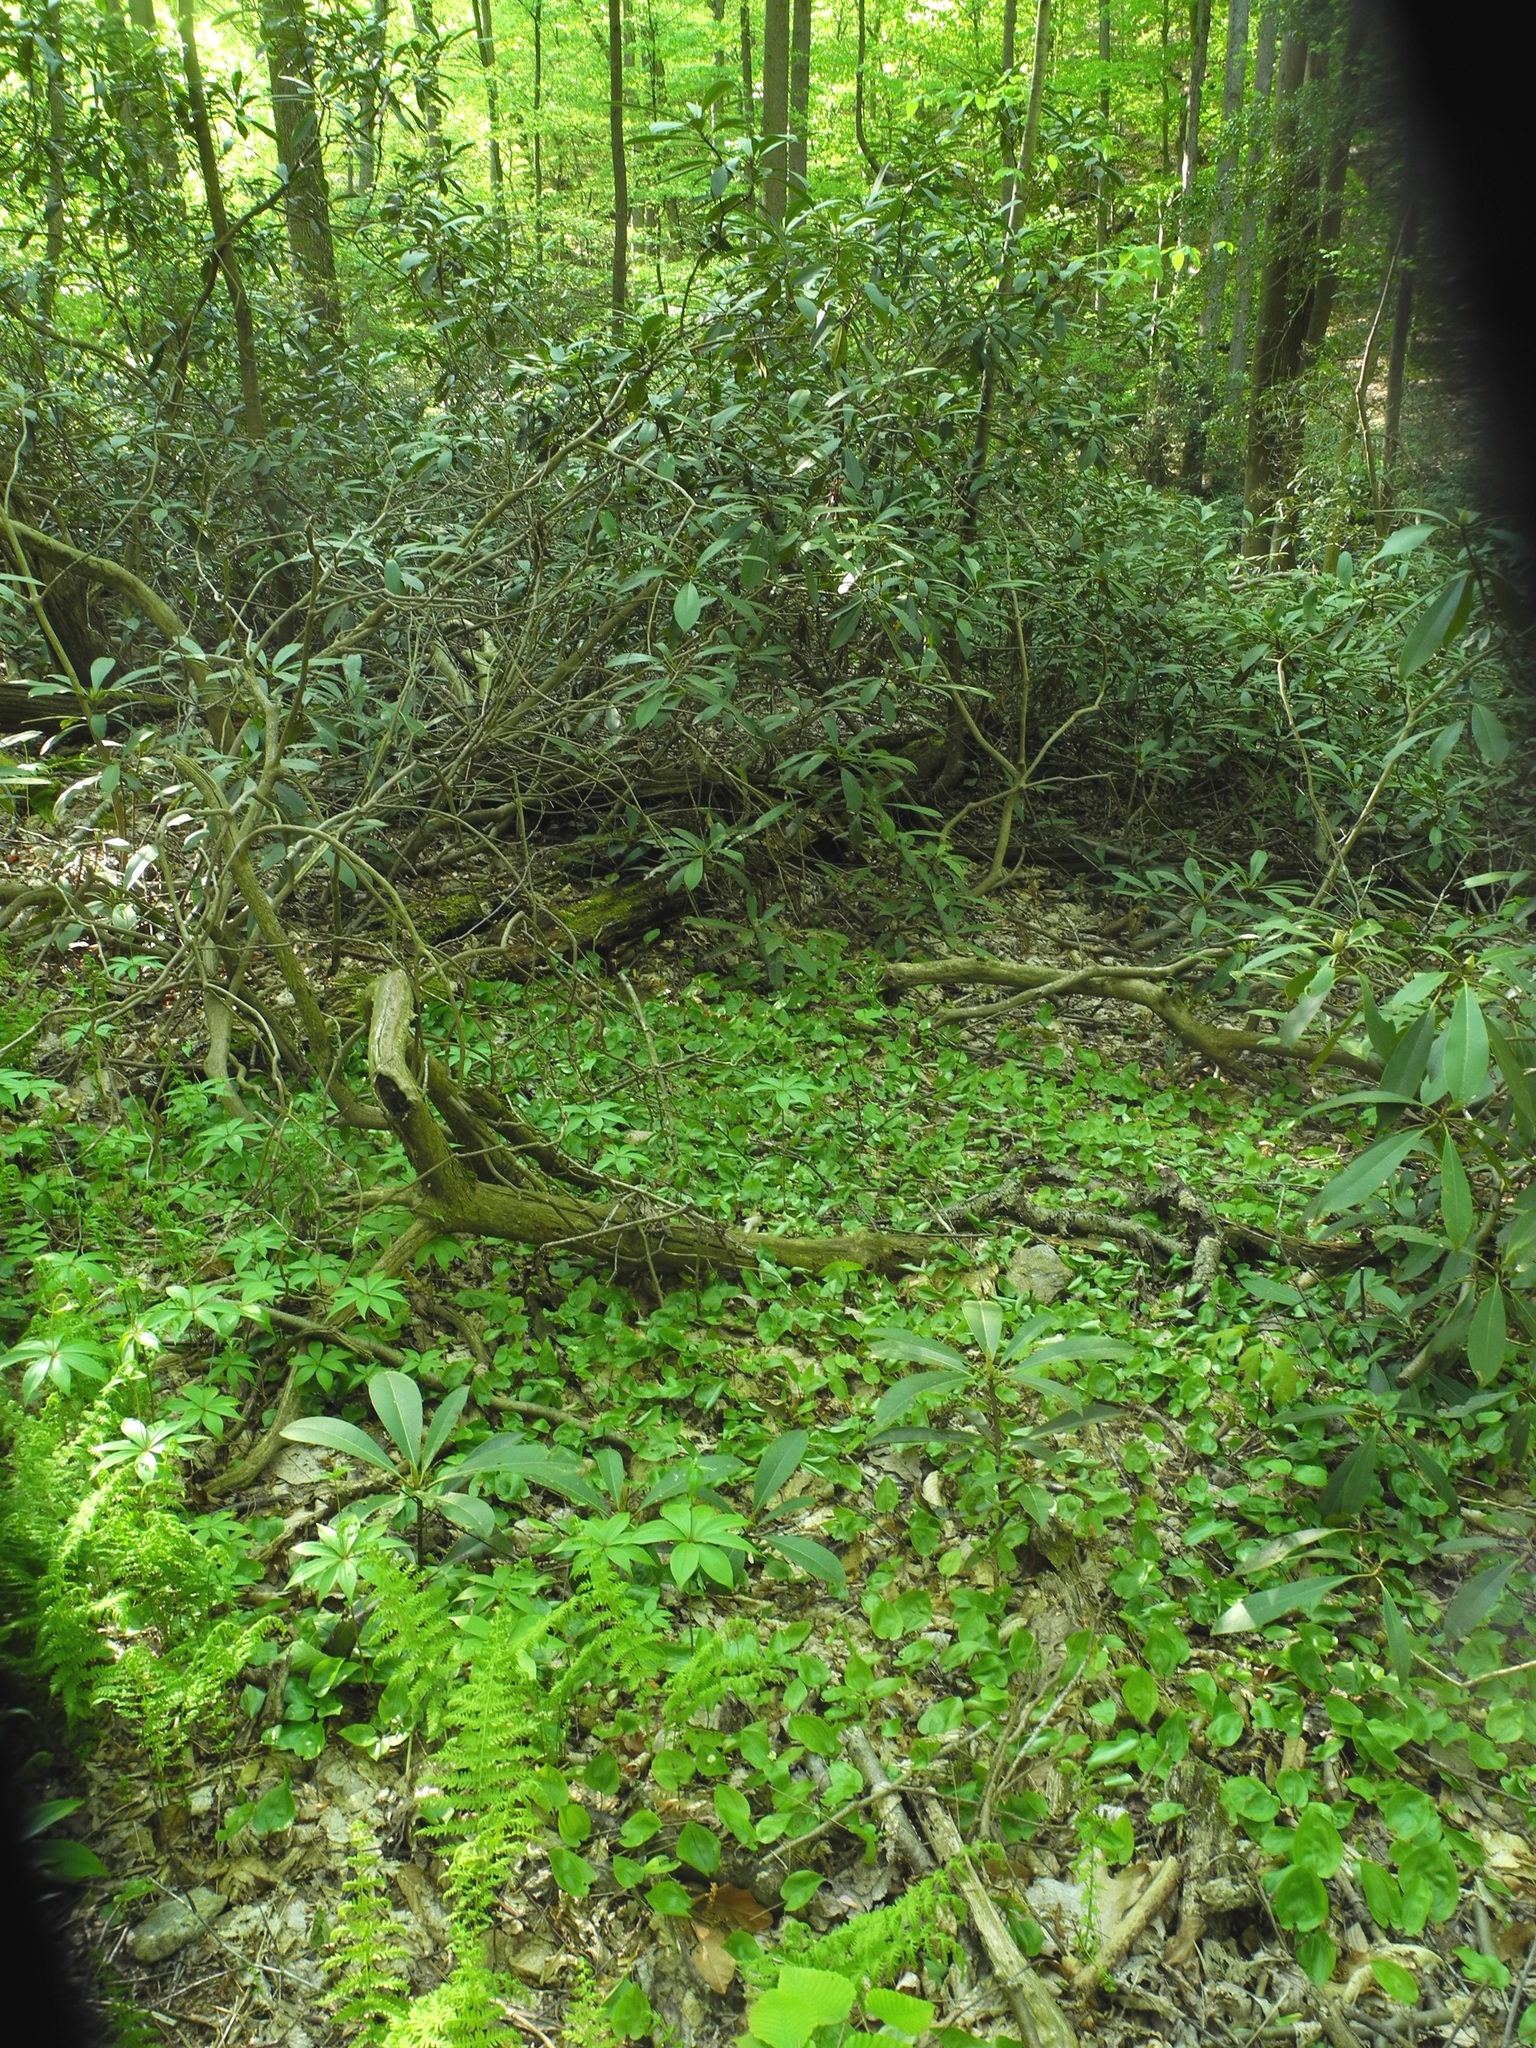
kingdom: Plantae
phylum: Tracheophyta
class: Magnoliopsida
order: Ericales
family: Ericaceae
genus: Rhododendron
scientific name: Rhododendron maximum
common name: Great rhododendron
